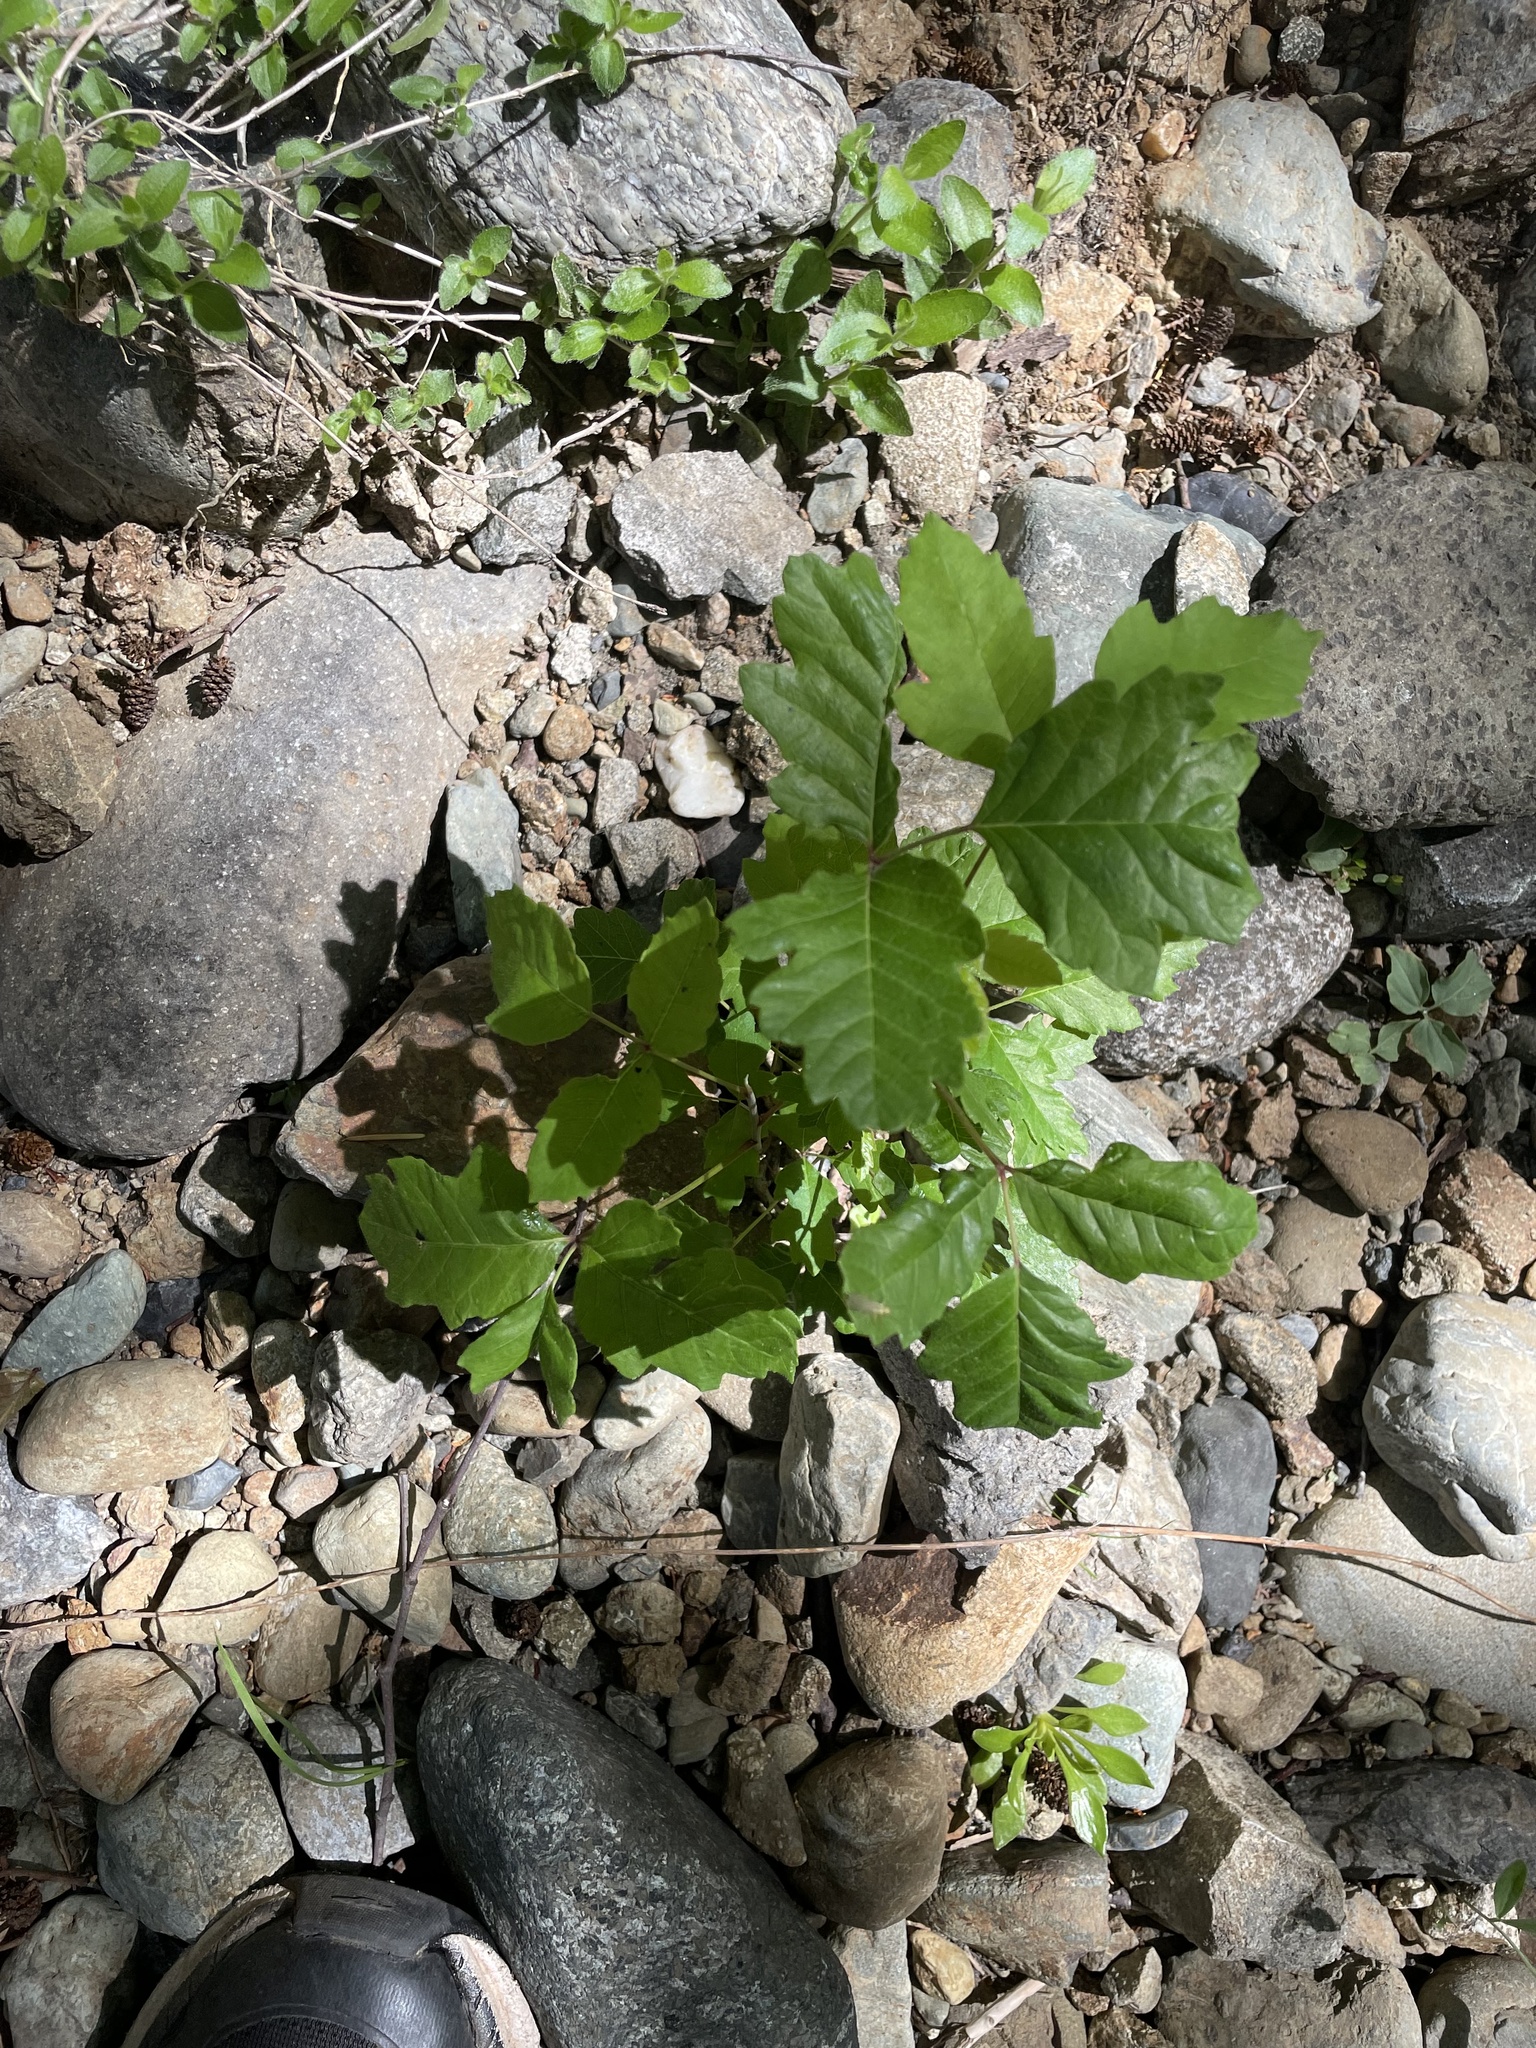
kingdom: Plantae
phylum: Tracheophyta
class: Magnoliopsida
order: Sapindales
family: Anacardiaceae
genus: Toxicodendron
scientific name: Toxicodendron diversilobum
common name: Pacific poison-oak
